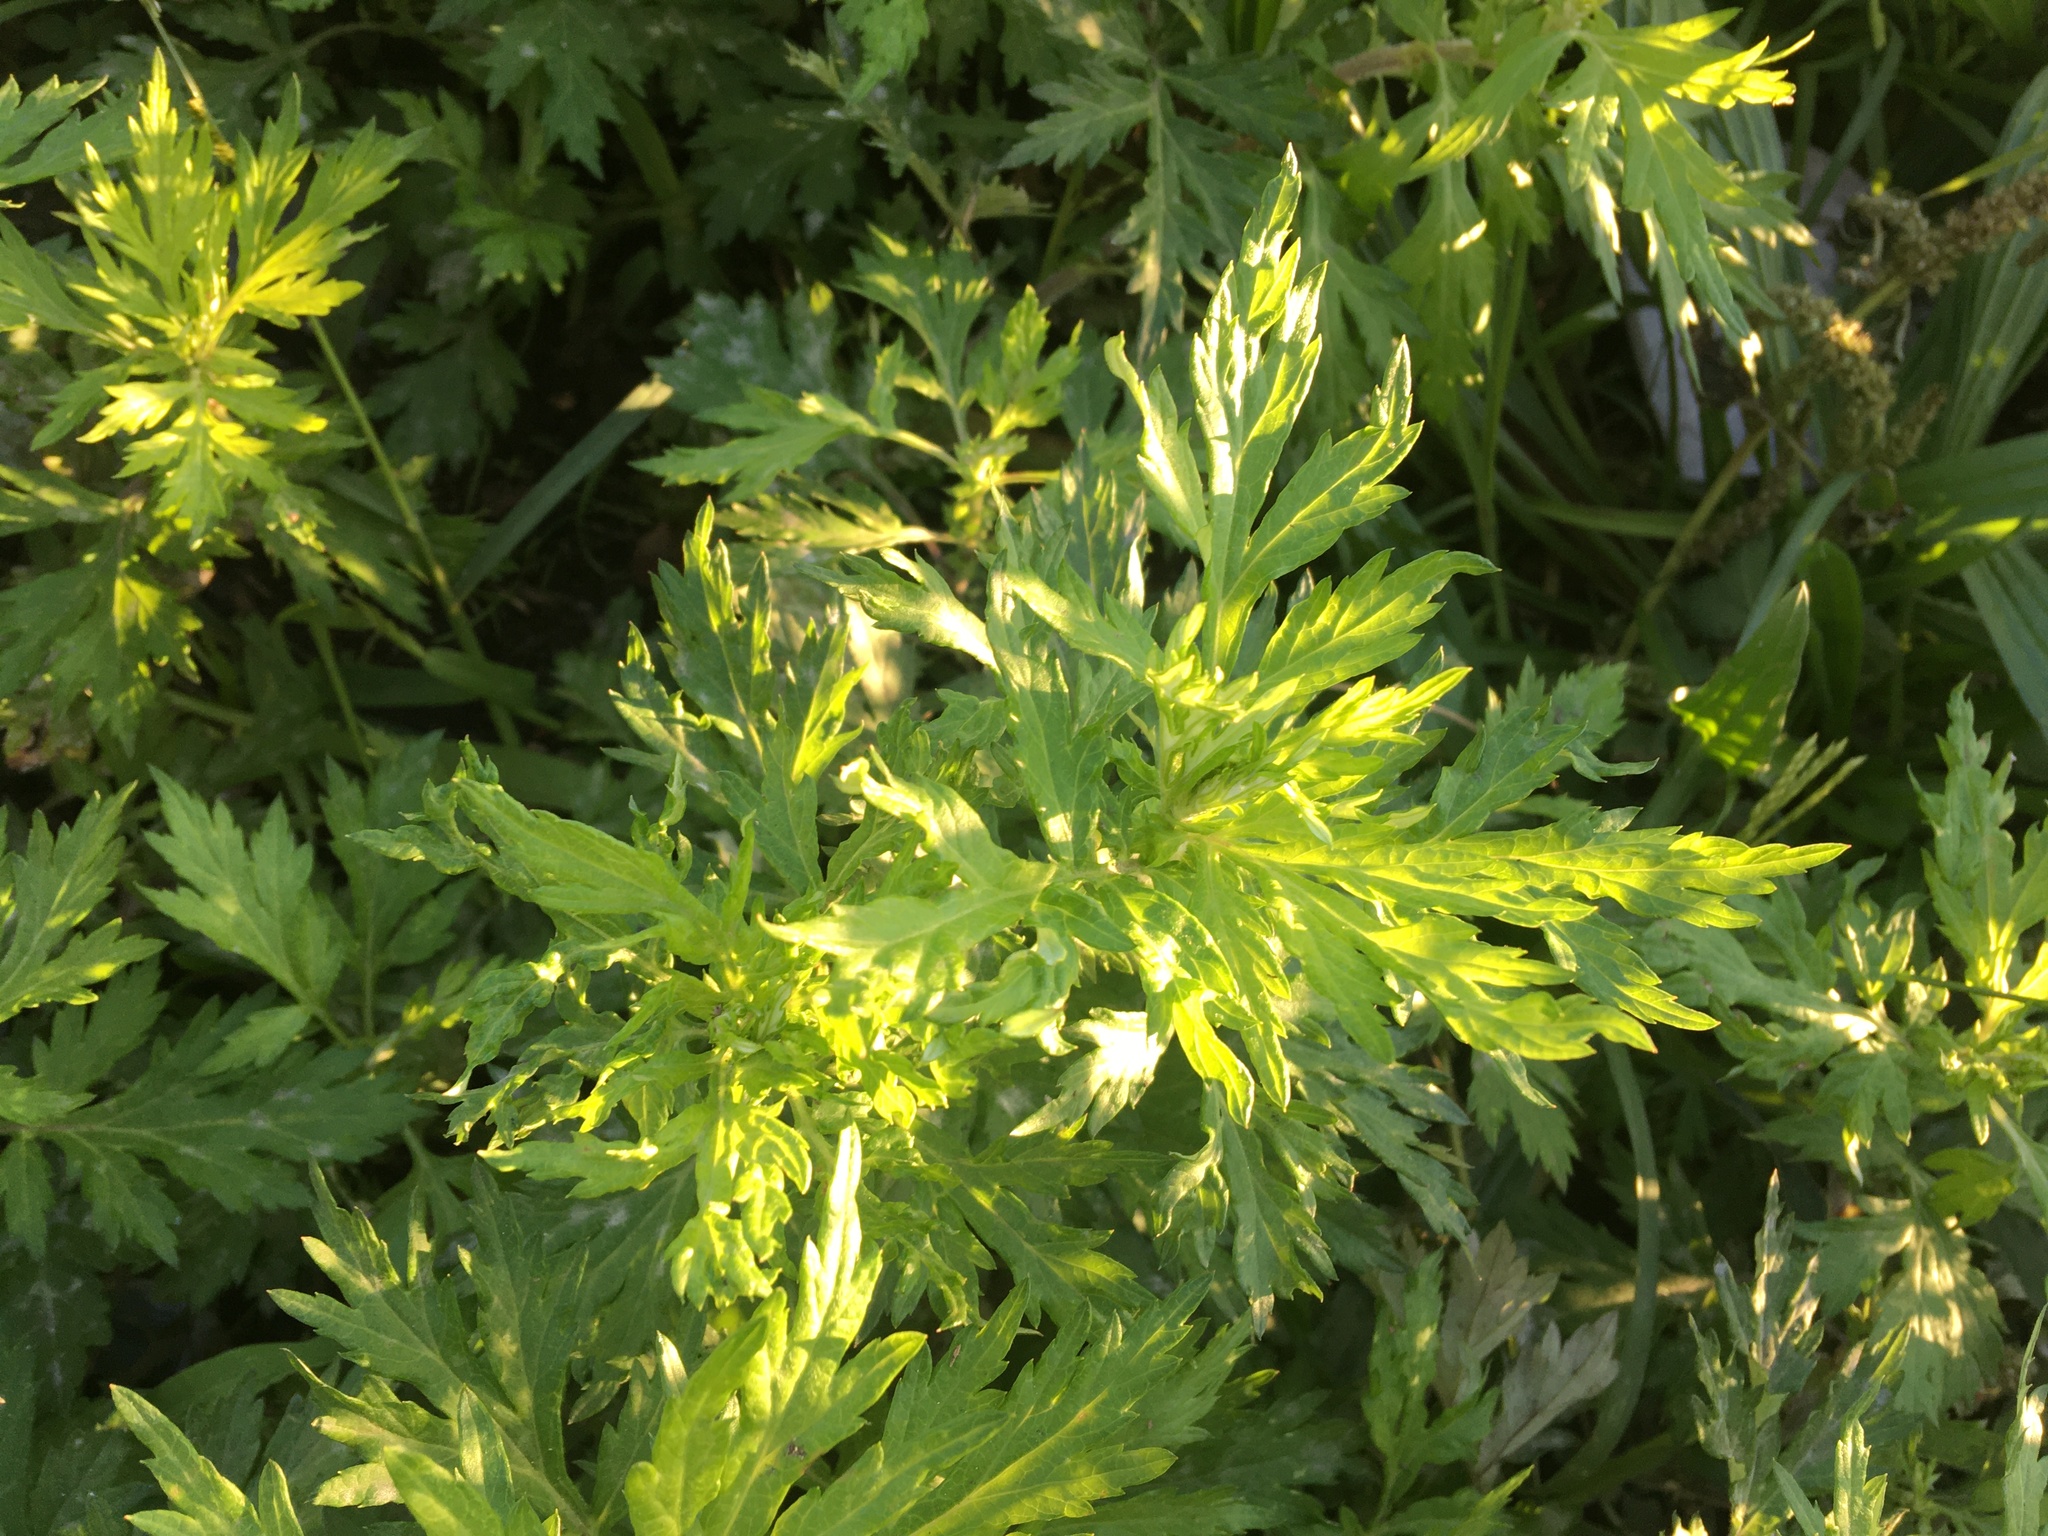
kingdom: Plantae
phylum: Tracheophyta
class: Magnoliopsida
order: Asterales
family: Asteraceae
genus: Artemisia
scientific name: Artemisia vulgaris
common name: Mugwort
